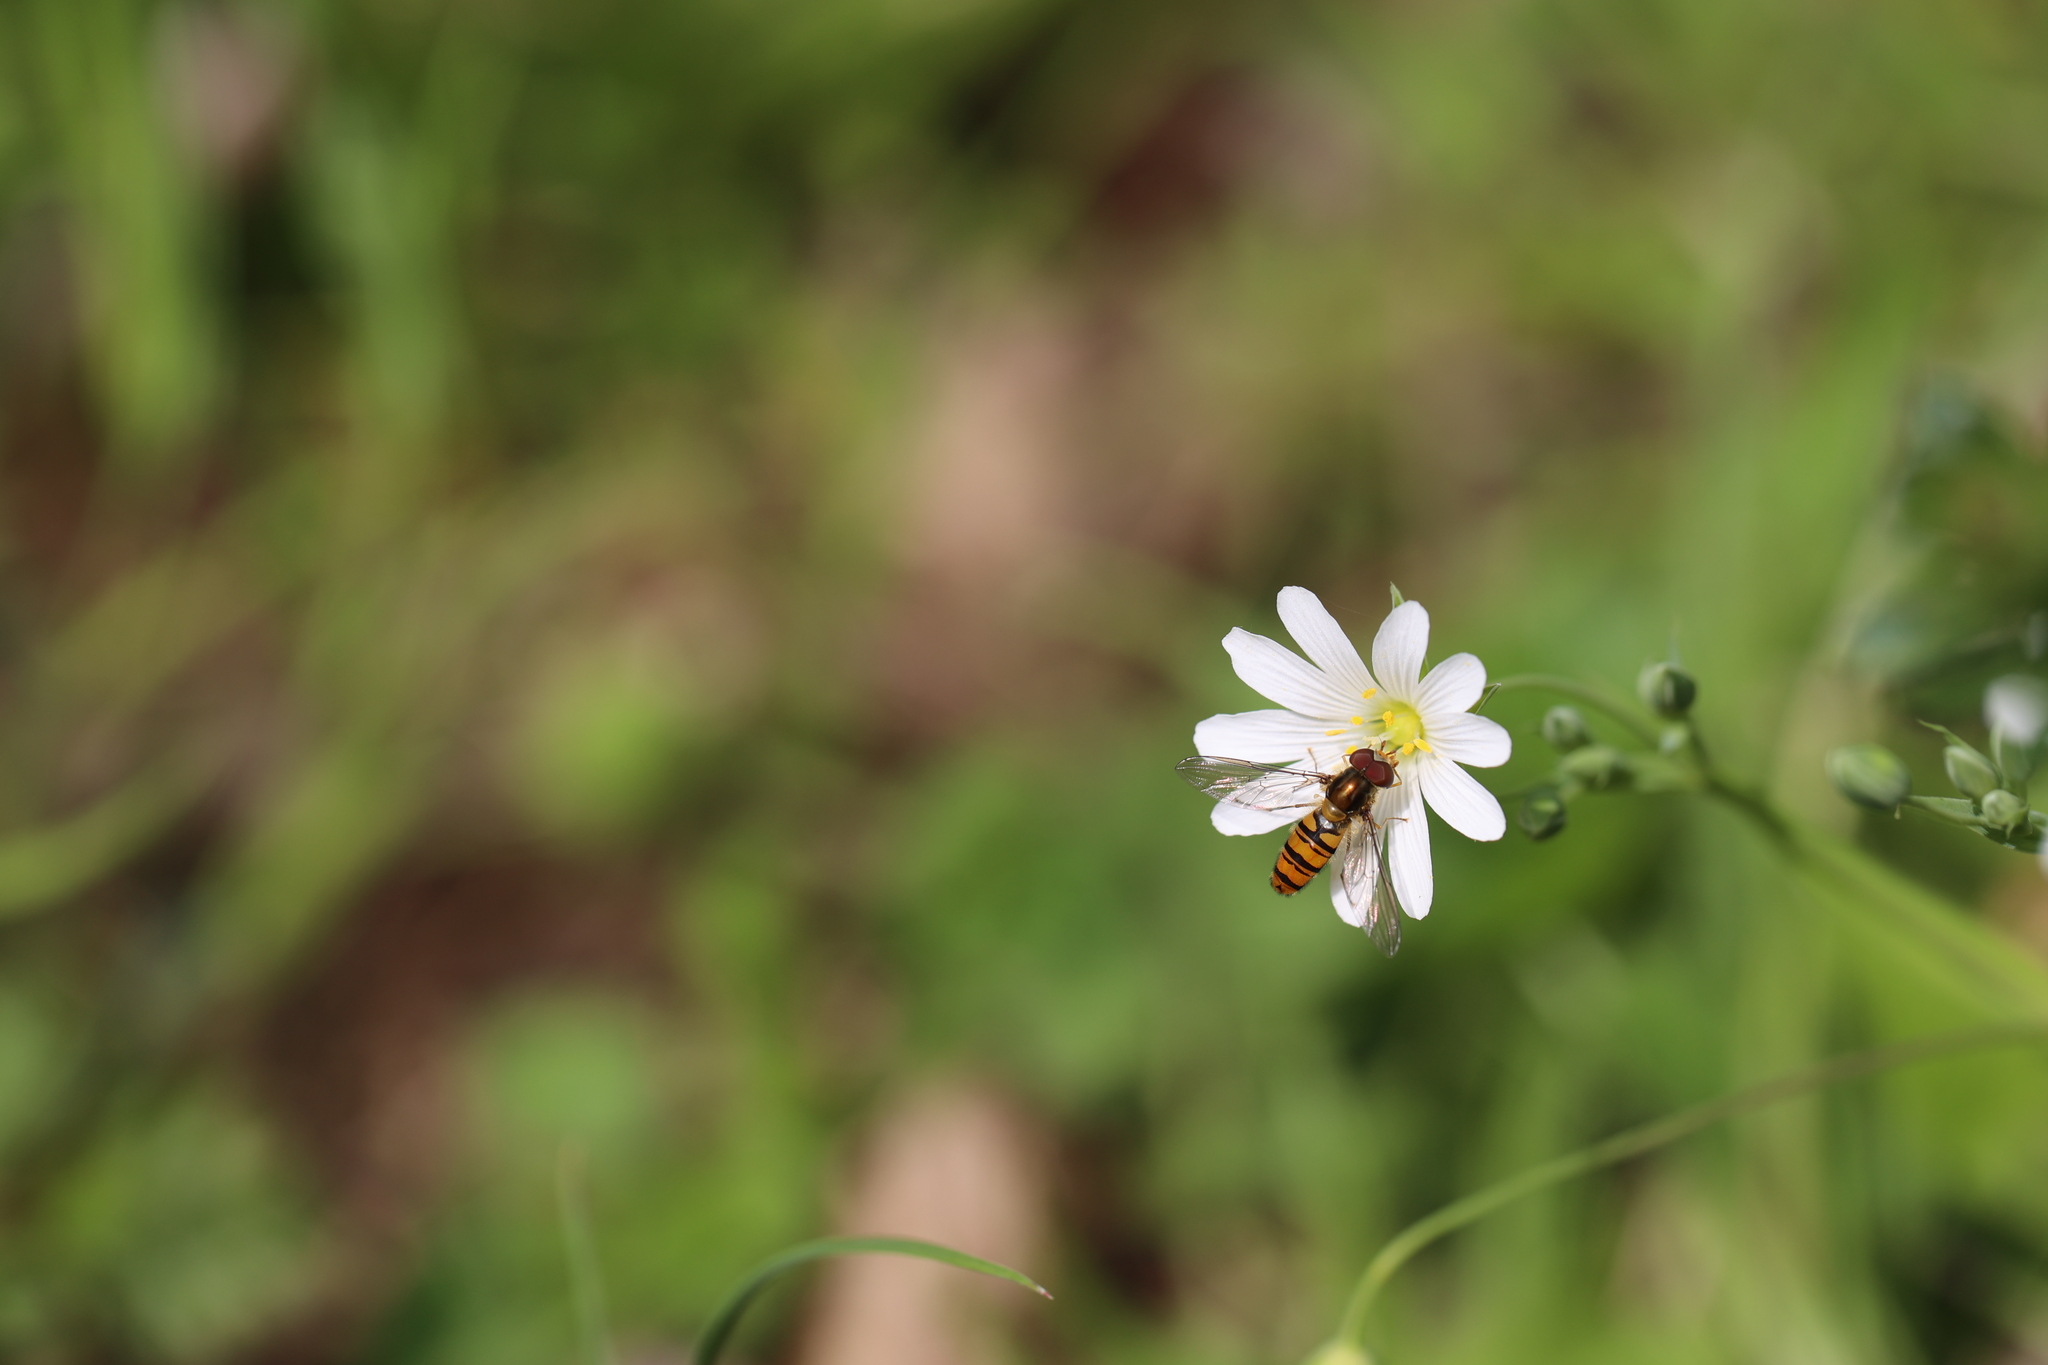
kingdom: Animalia
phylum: Arthropoda
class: Insecta
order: Diptera
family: Syrphidae
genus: Episyrphus
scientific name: Episyrphus balteatus
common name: Marmalade hoverfly
